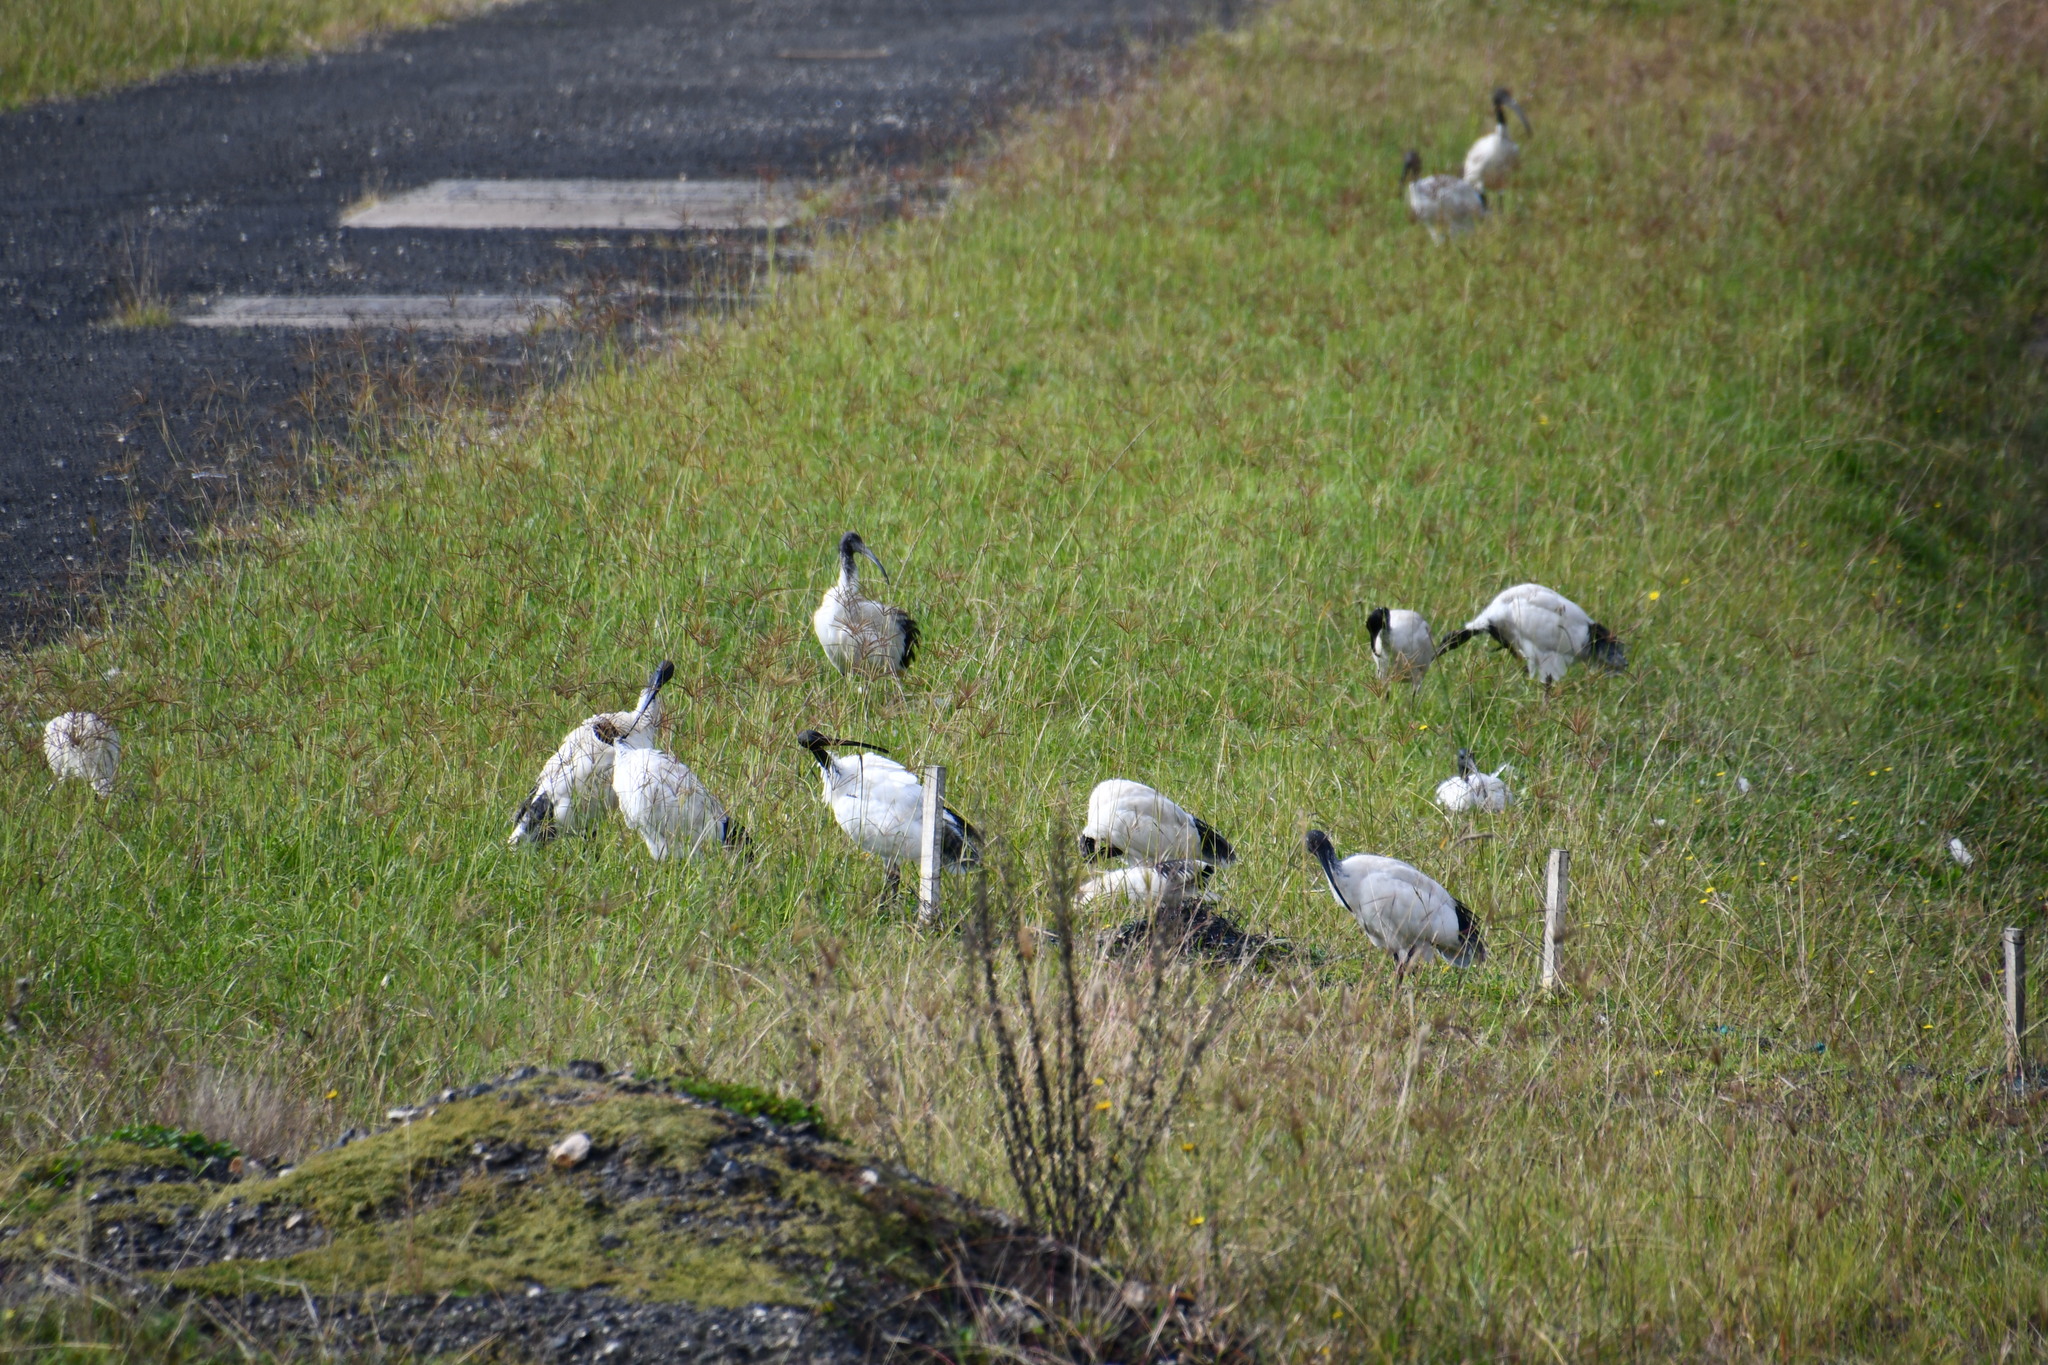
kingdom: Animalia
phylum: Chordata
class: Aves
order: Pelecaniformes
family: Threskiornithidae
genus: Threskiornis
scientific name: Threskiornis molucca
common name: Australian white ibis
